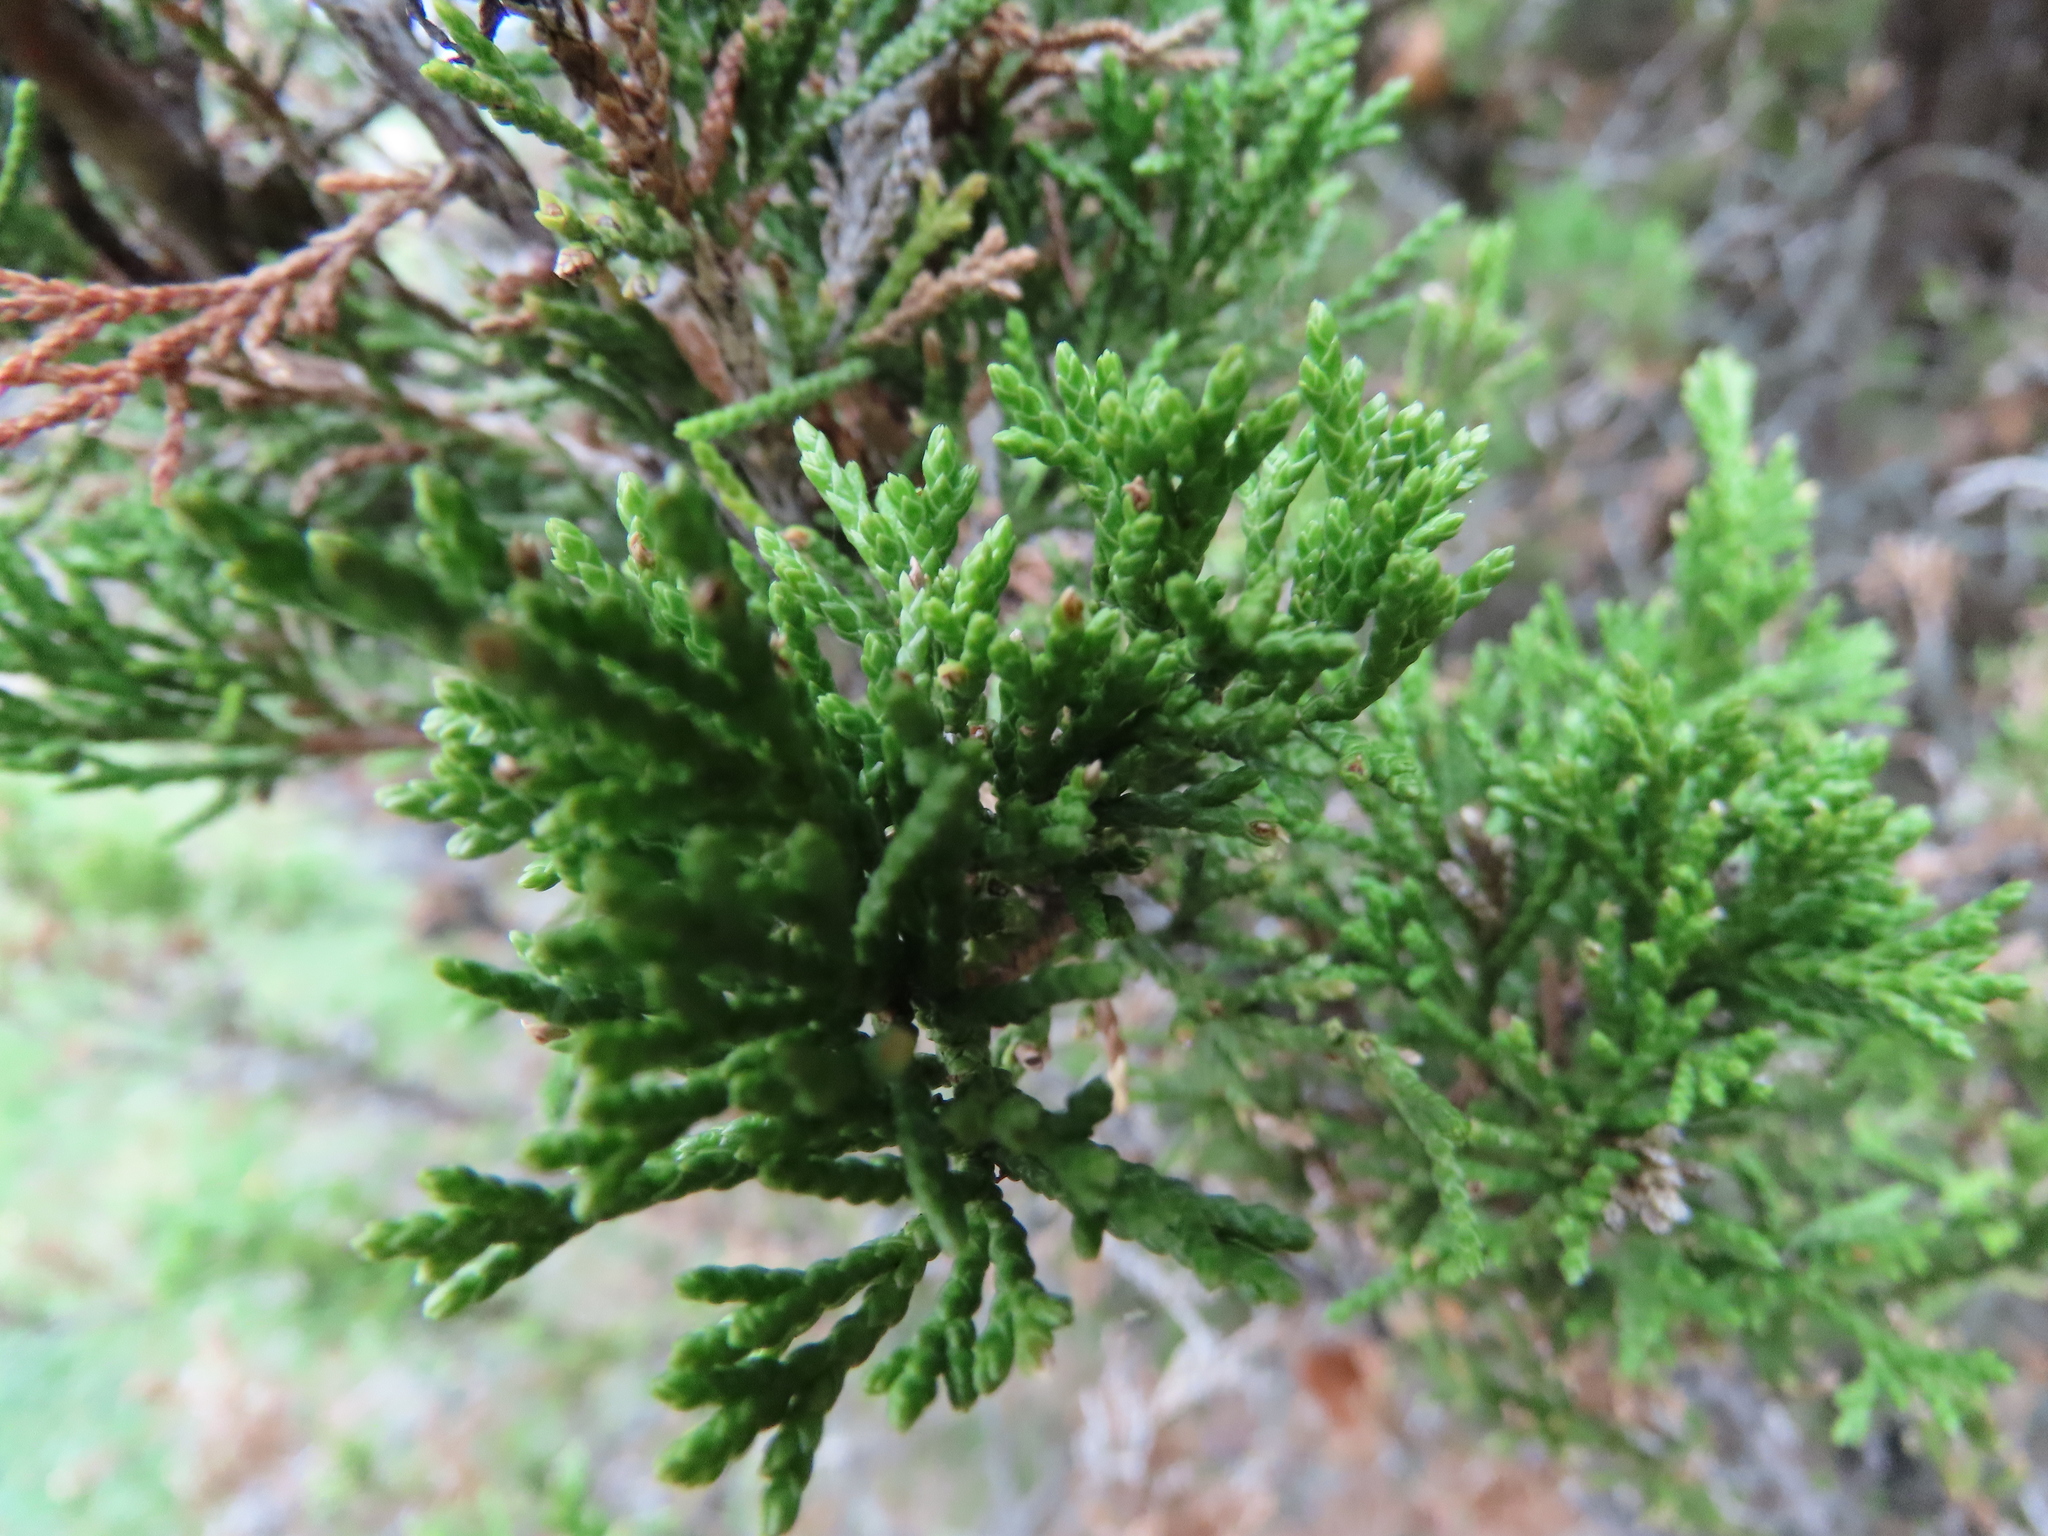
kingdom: Plantae
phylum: Tracheophyta
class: Pinopsida
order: Pinales
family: Cupressaceae
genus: Juniperus
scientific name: Juniperus virginiana
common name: Red juniper
